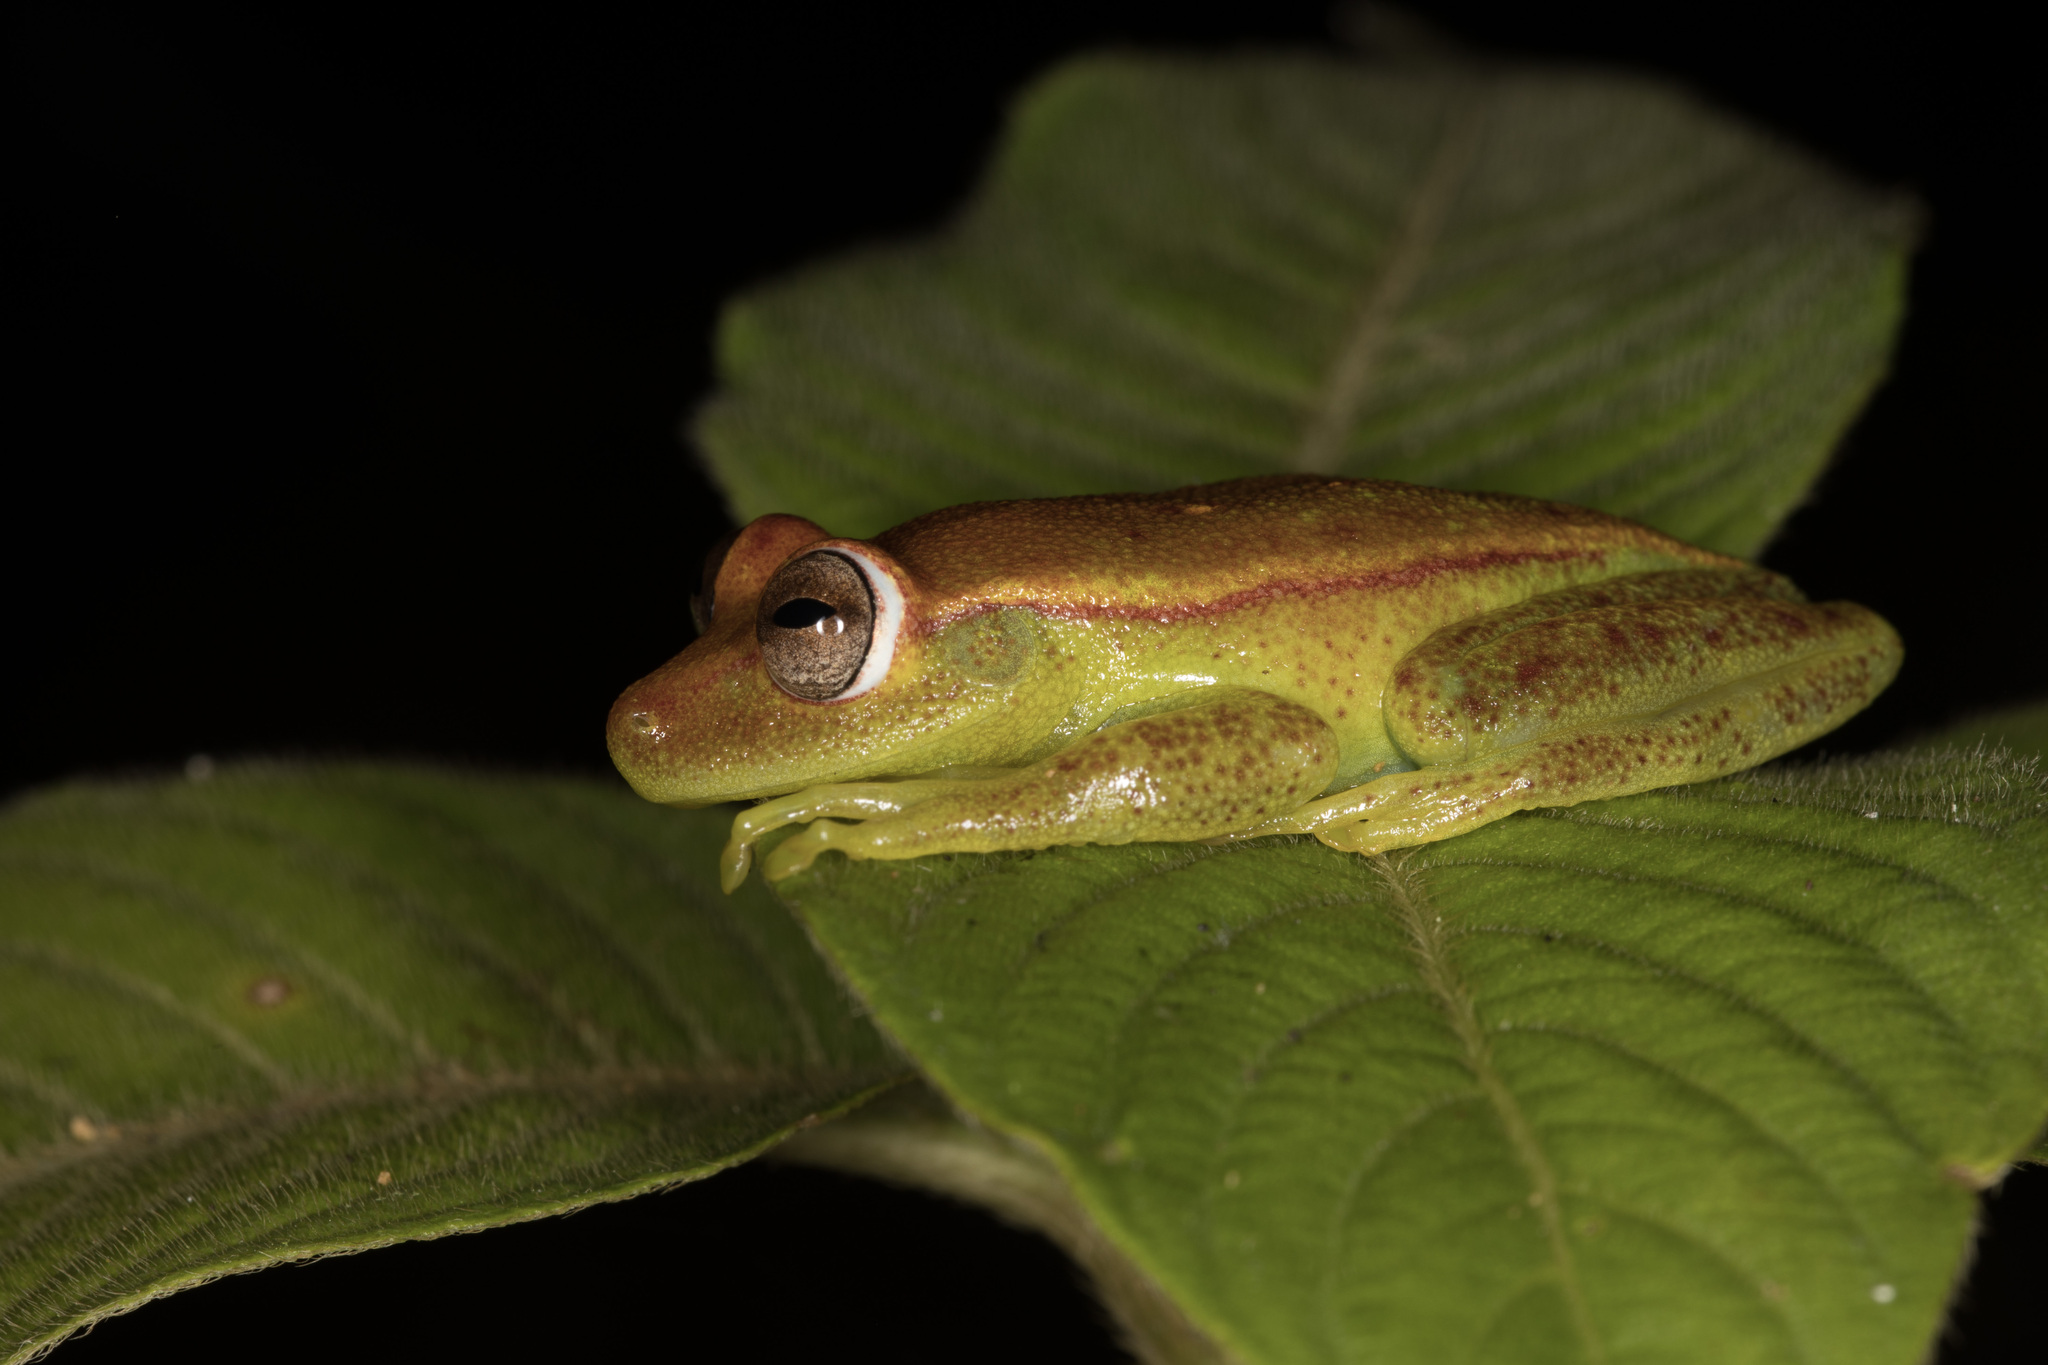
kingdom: Animalia
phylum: Chordata
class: Amphibia
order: Anura
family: Hylidae
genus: Boana
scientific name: Boana punctata
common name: Polka-dot treefrog
